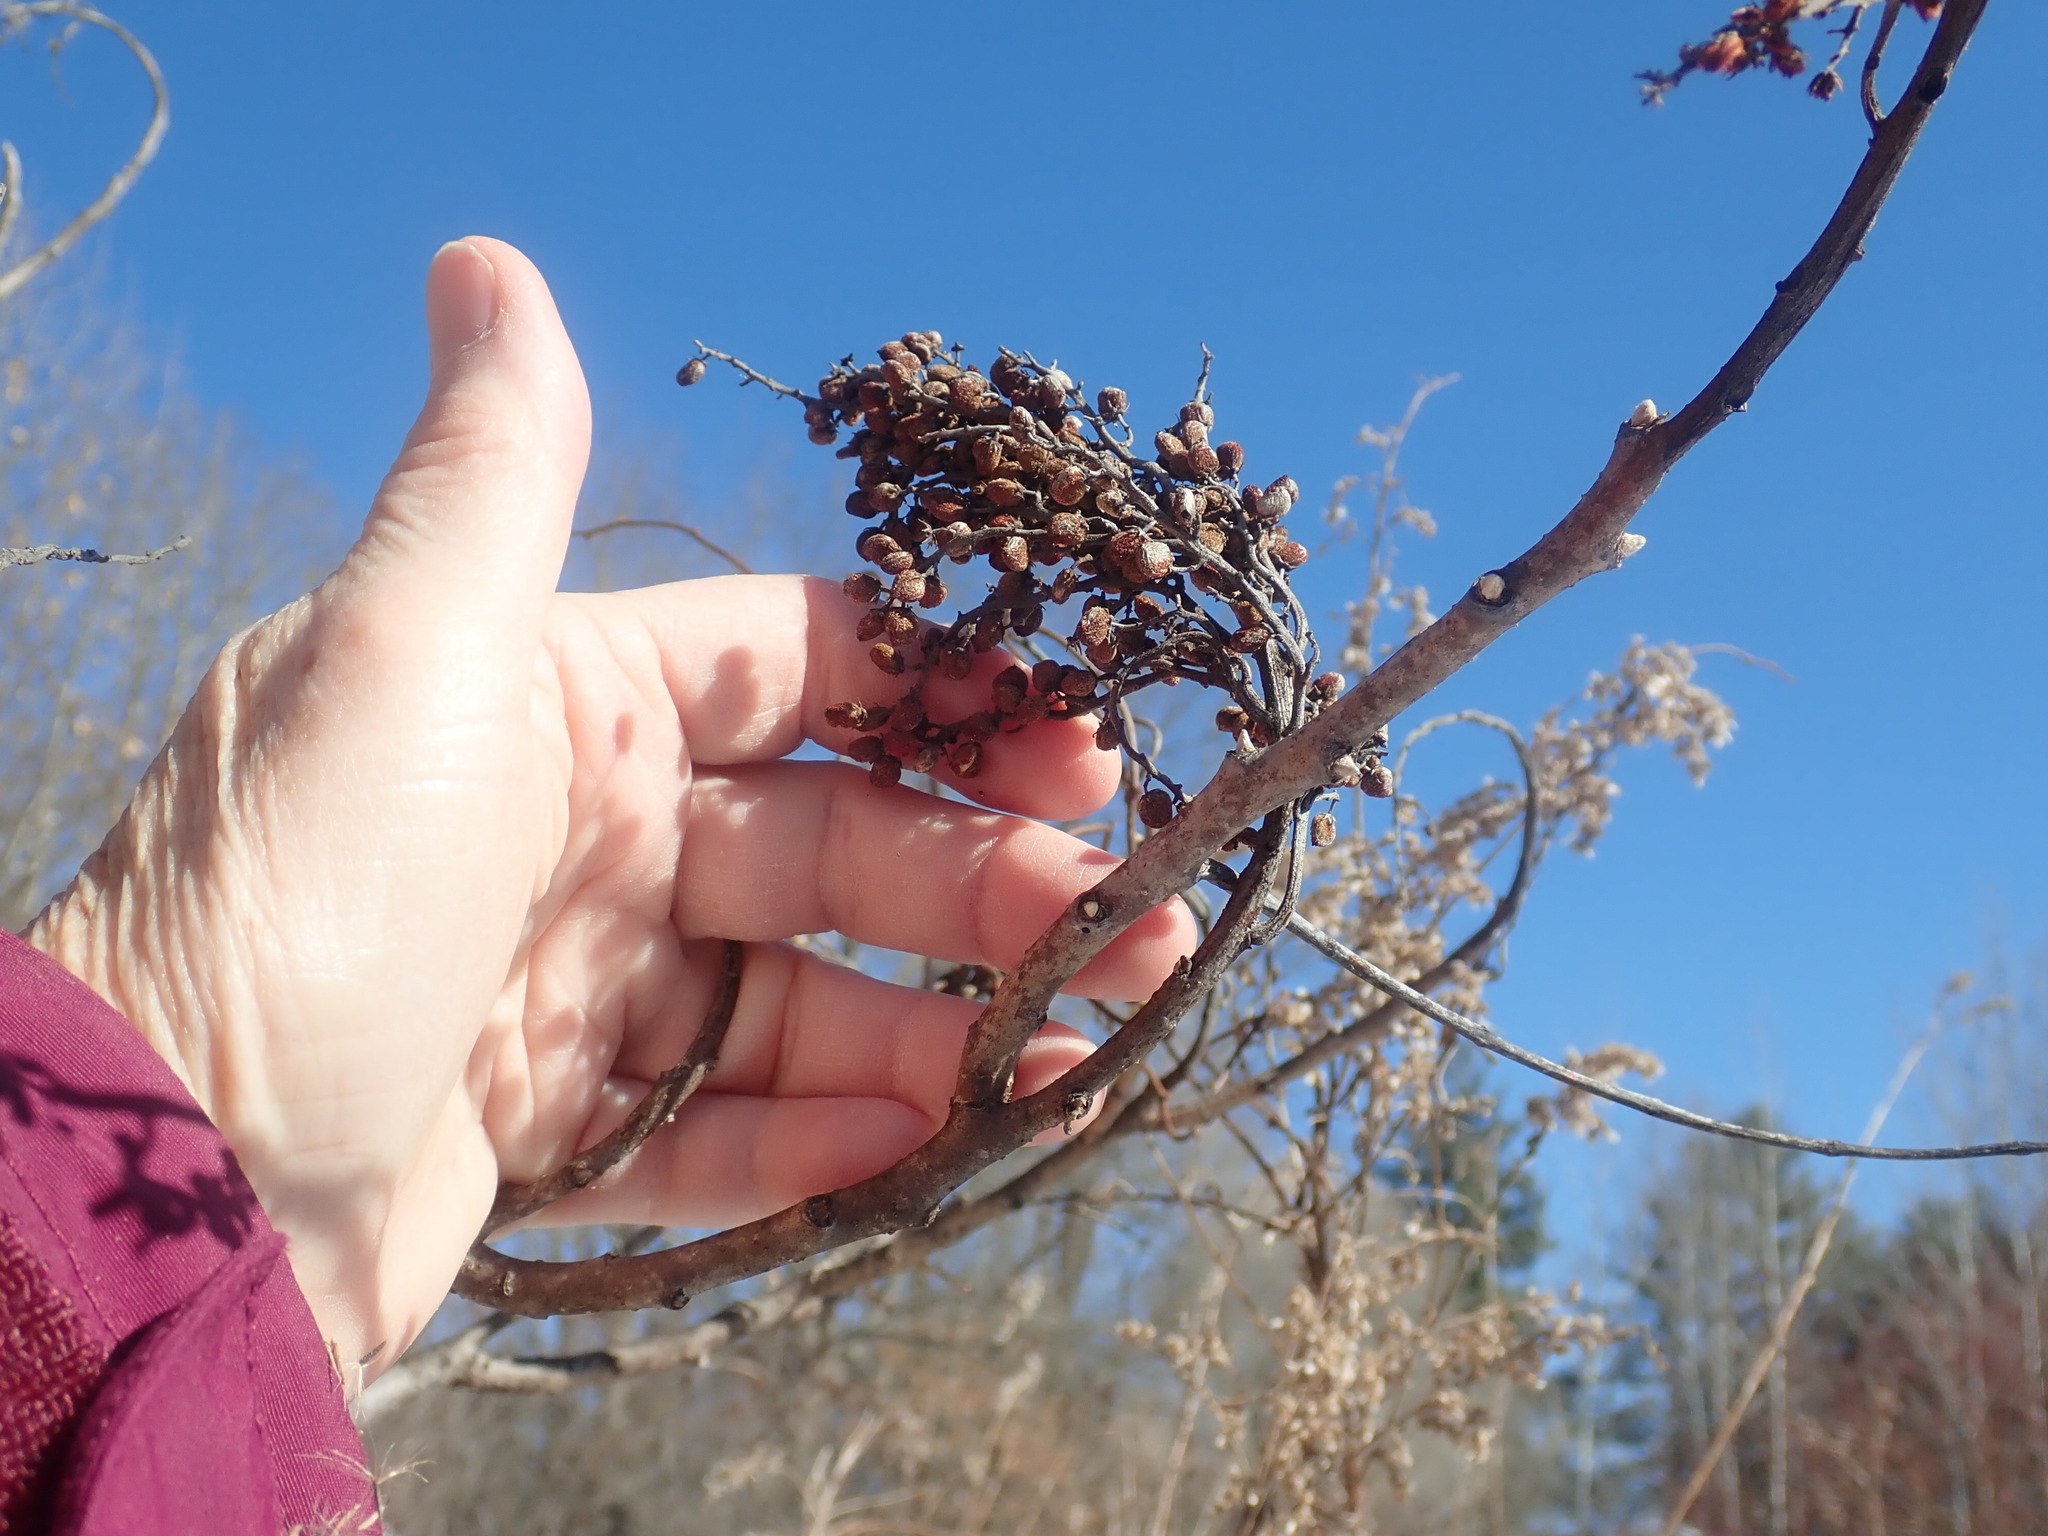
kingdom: Plantae
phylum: Tracheophyta
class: Magnoliopsida
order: Sapindales
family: Anacardiaceae
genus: Rhus
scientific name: Rhus glabra
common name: Scarlet sumac
